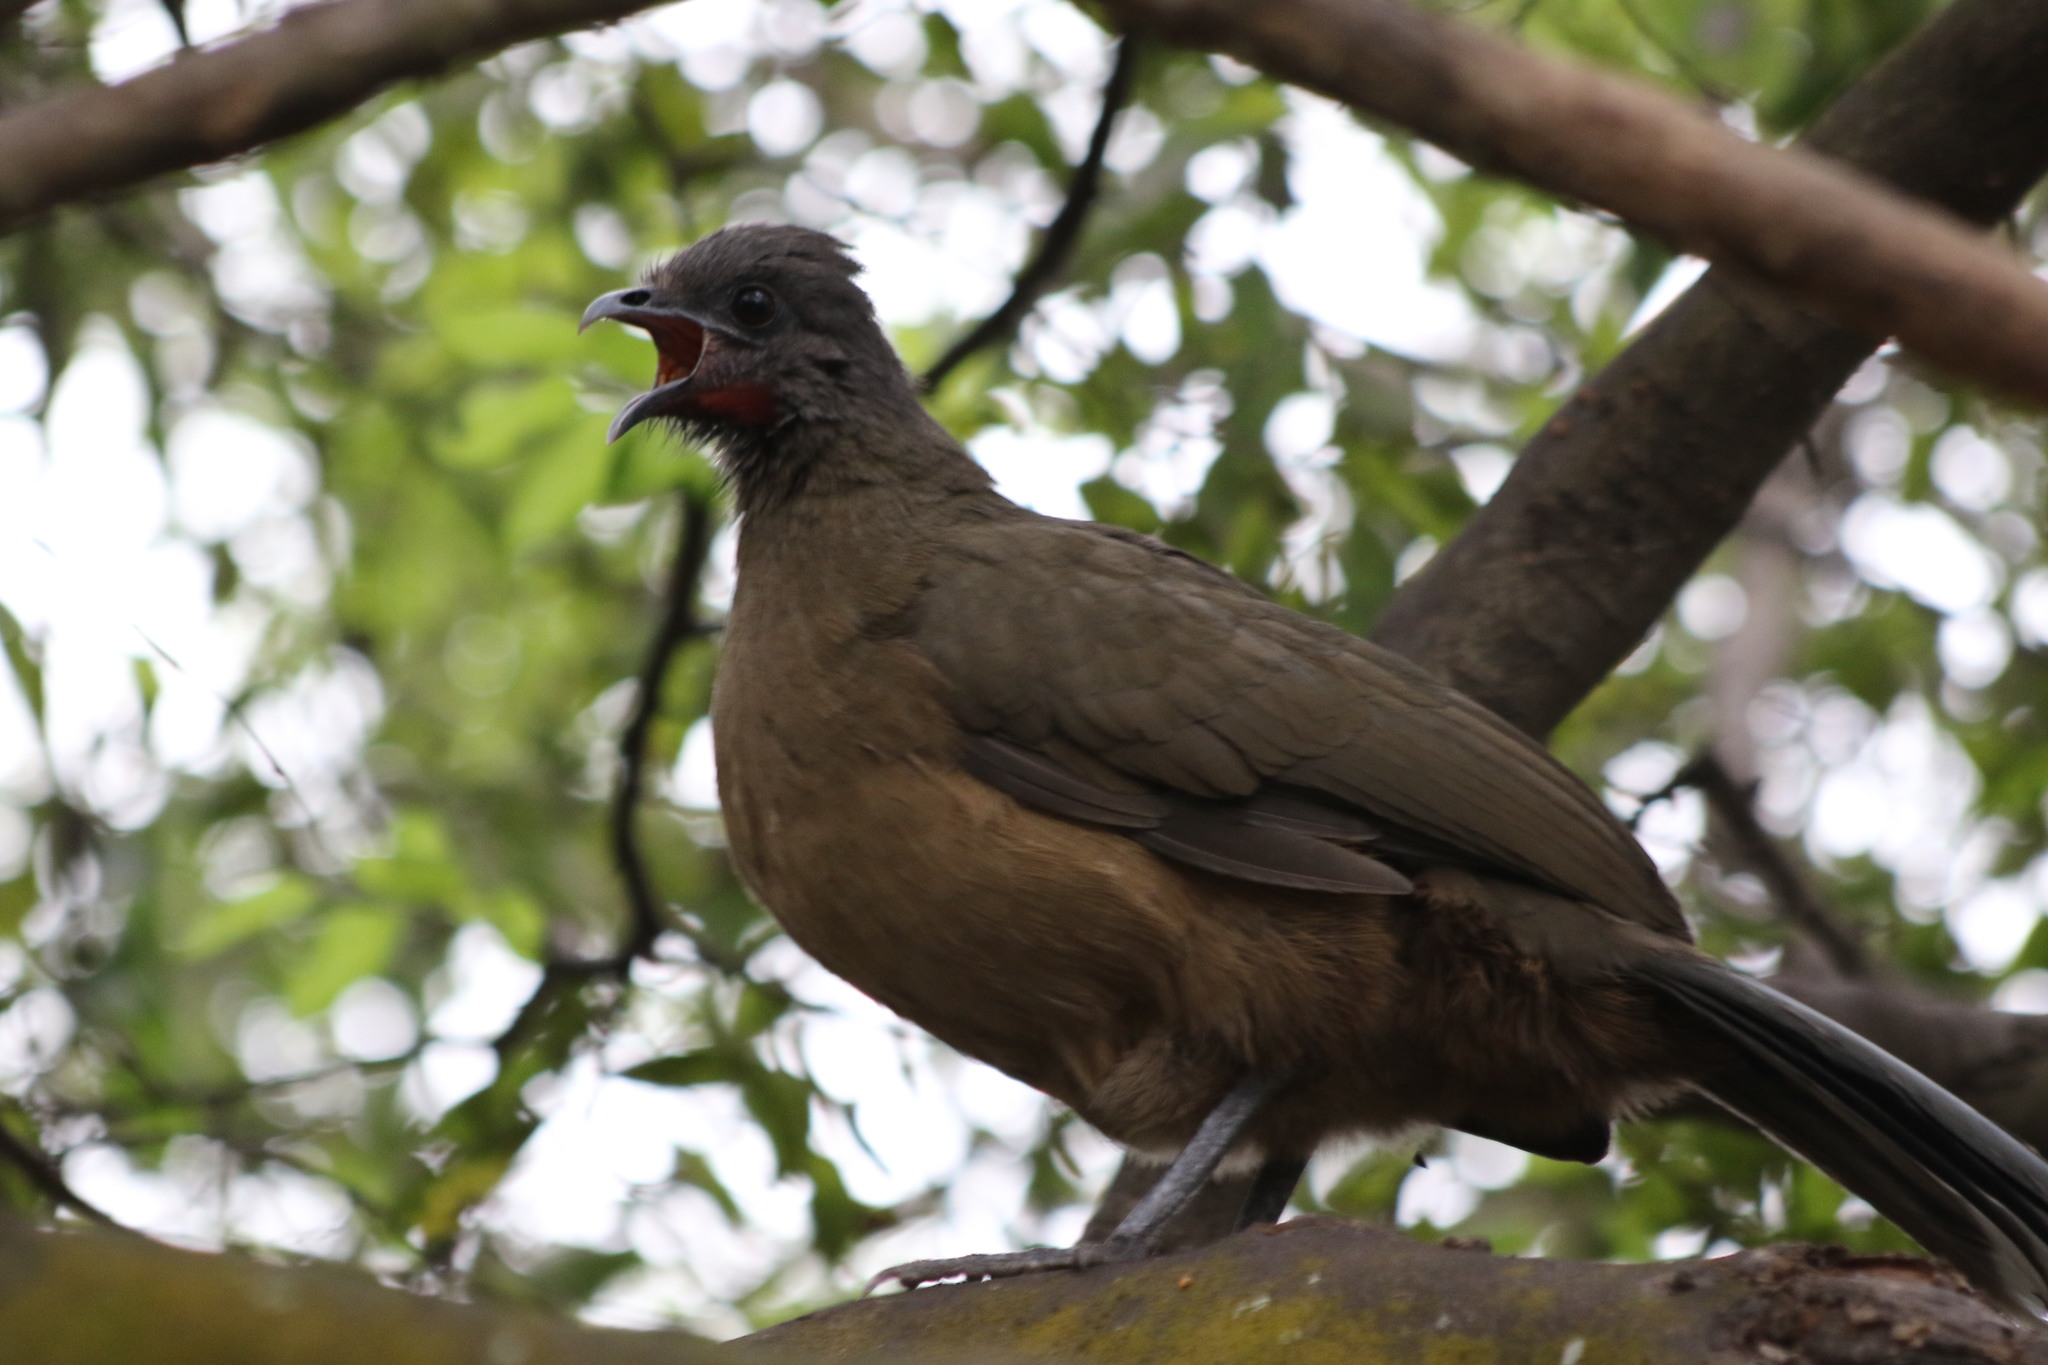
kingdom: Animalia
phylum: Chordata
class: Aves
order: Galliformes
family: Cracidae
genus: Ortalis
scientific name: Ortalis vetula
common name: Plain chachalaca
